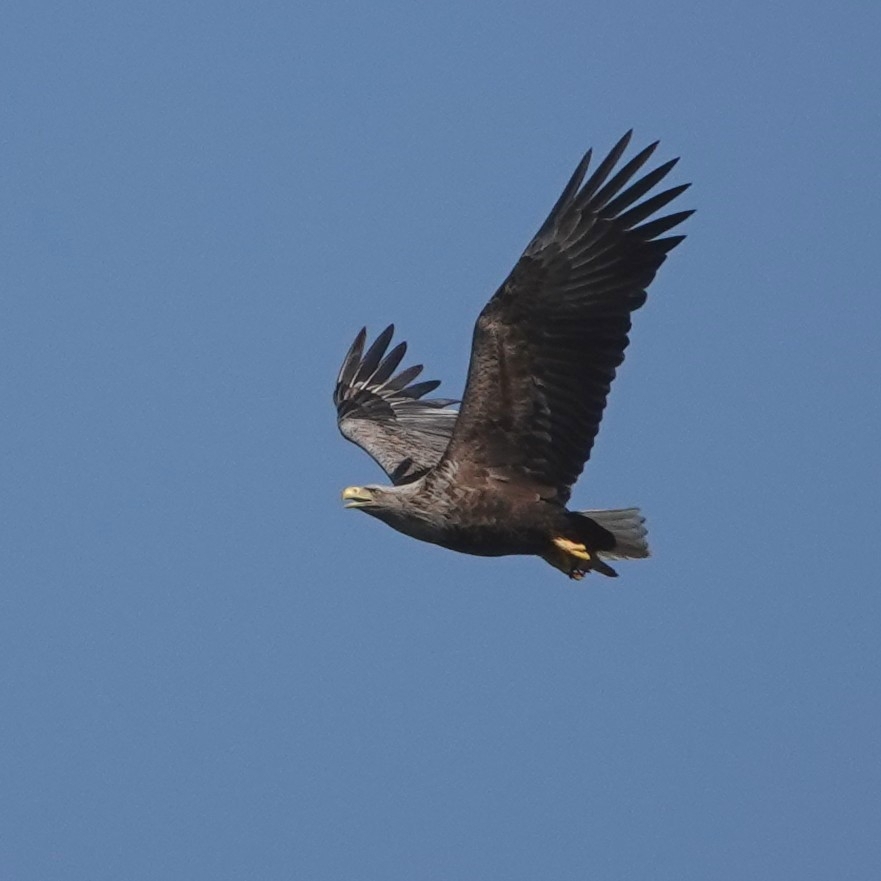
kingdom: Animalia
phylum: Chordata
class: Aves
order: Accipitriformes
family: Accipitridae
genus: Haliaeetus
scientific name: Haliaeetus albicilla
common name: White-tailed eagle
